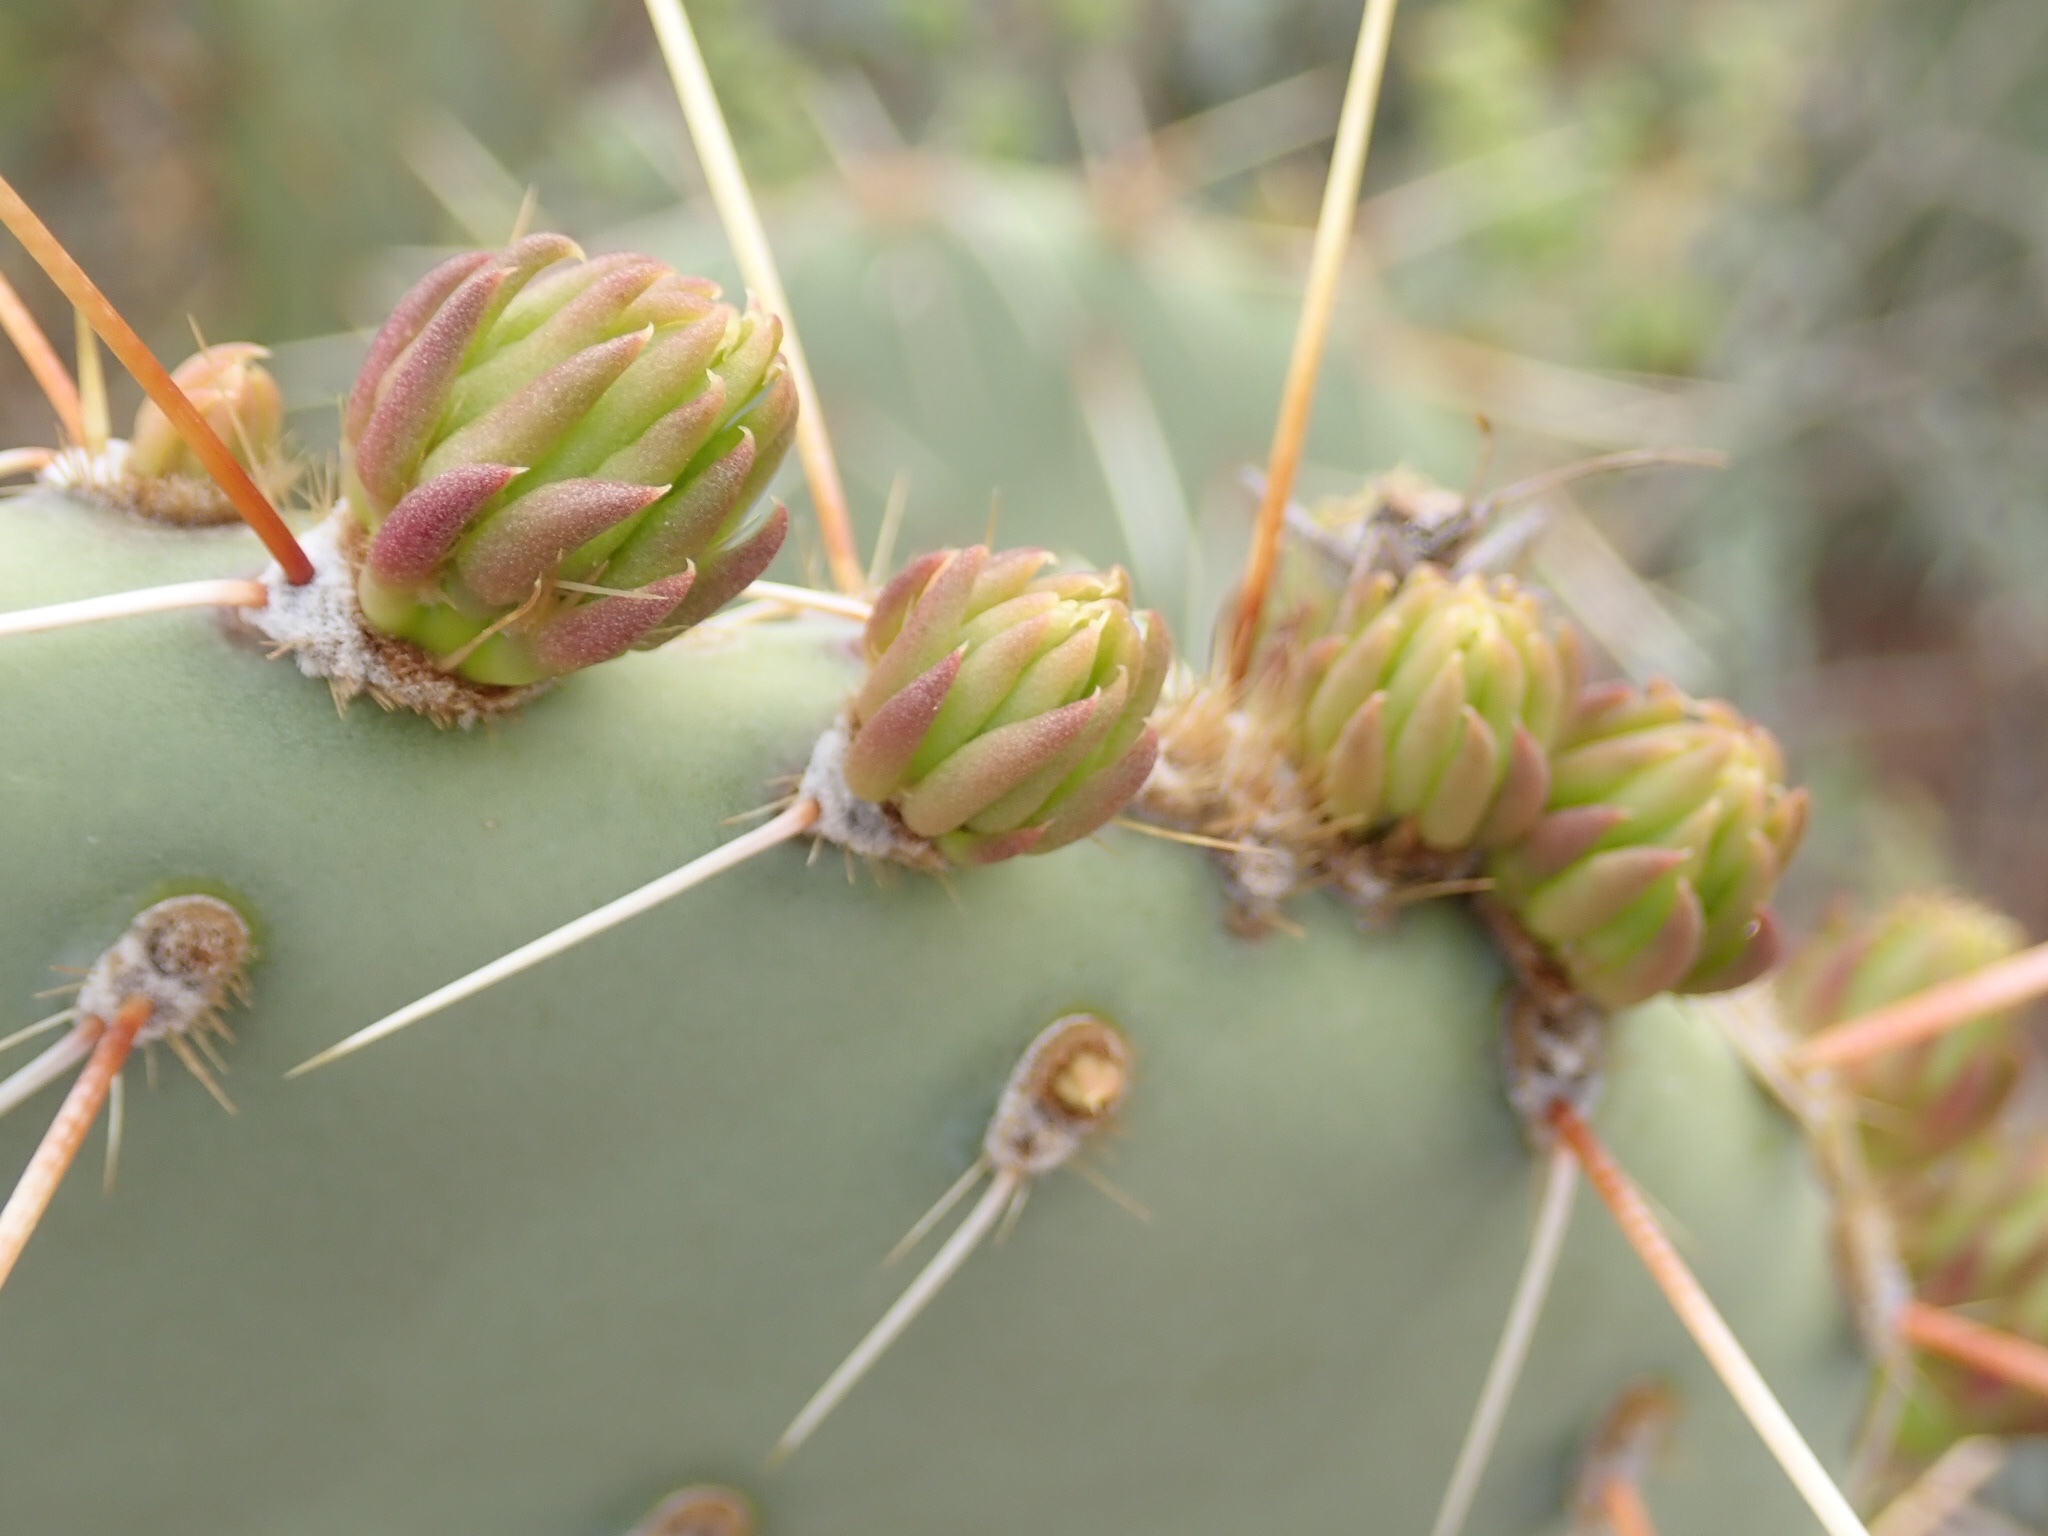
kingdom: Plantae
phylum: Tracheophyta
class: Magnoliopsida
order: Caryophyllales
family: Cactaceae
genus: Opuntia
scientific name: Opuntia engelmannii
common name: Cactus-apple
